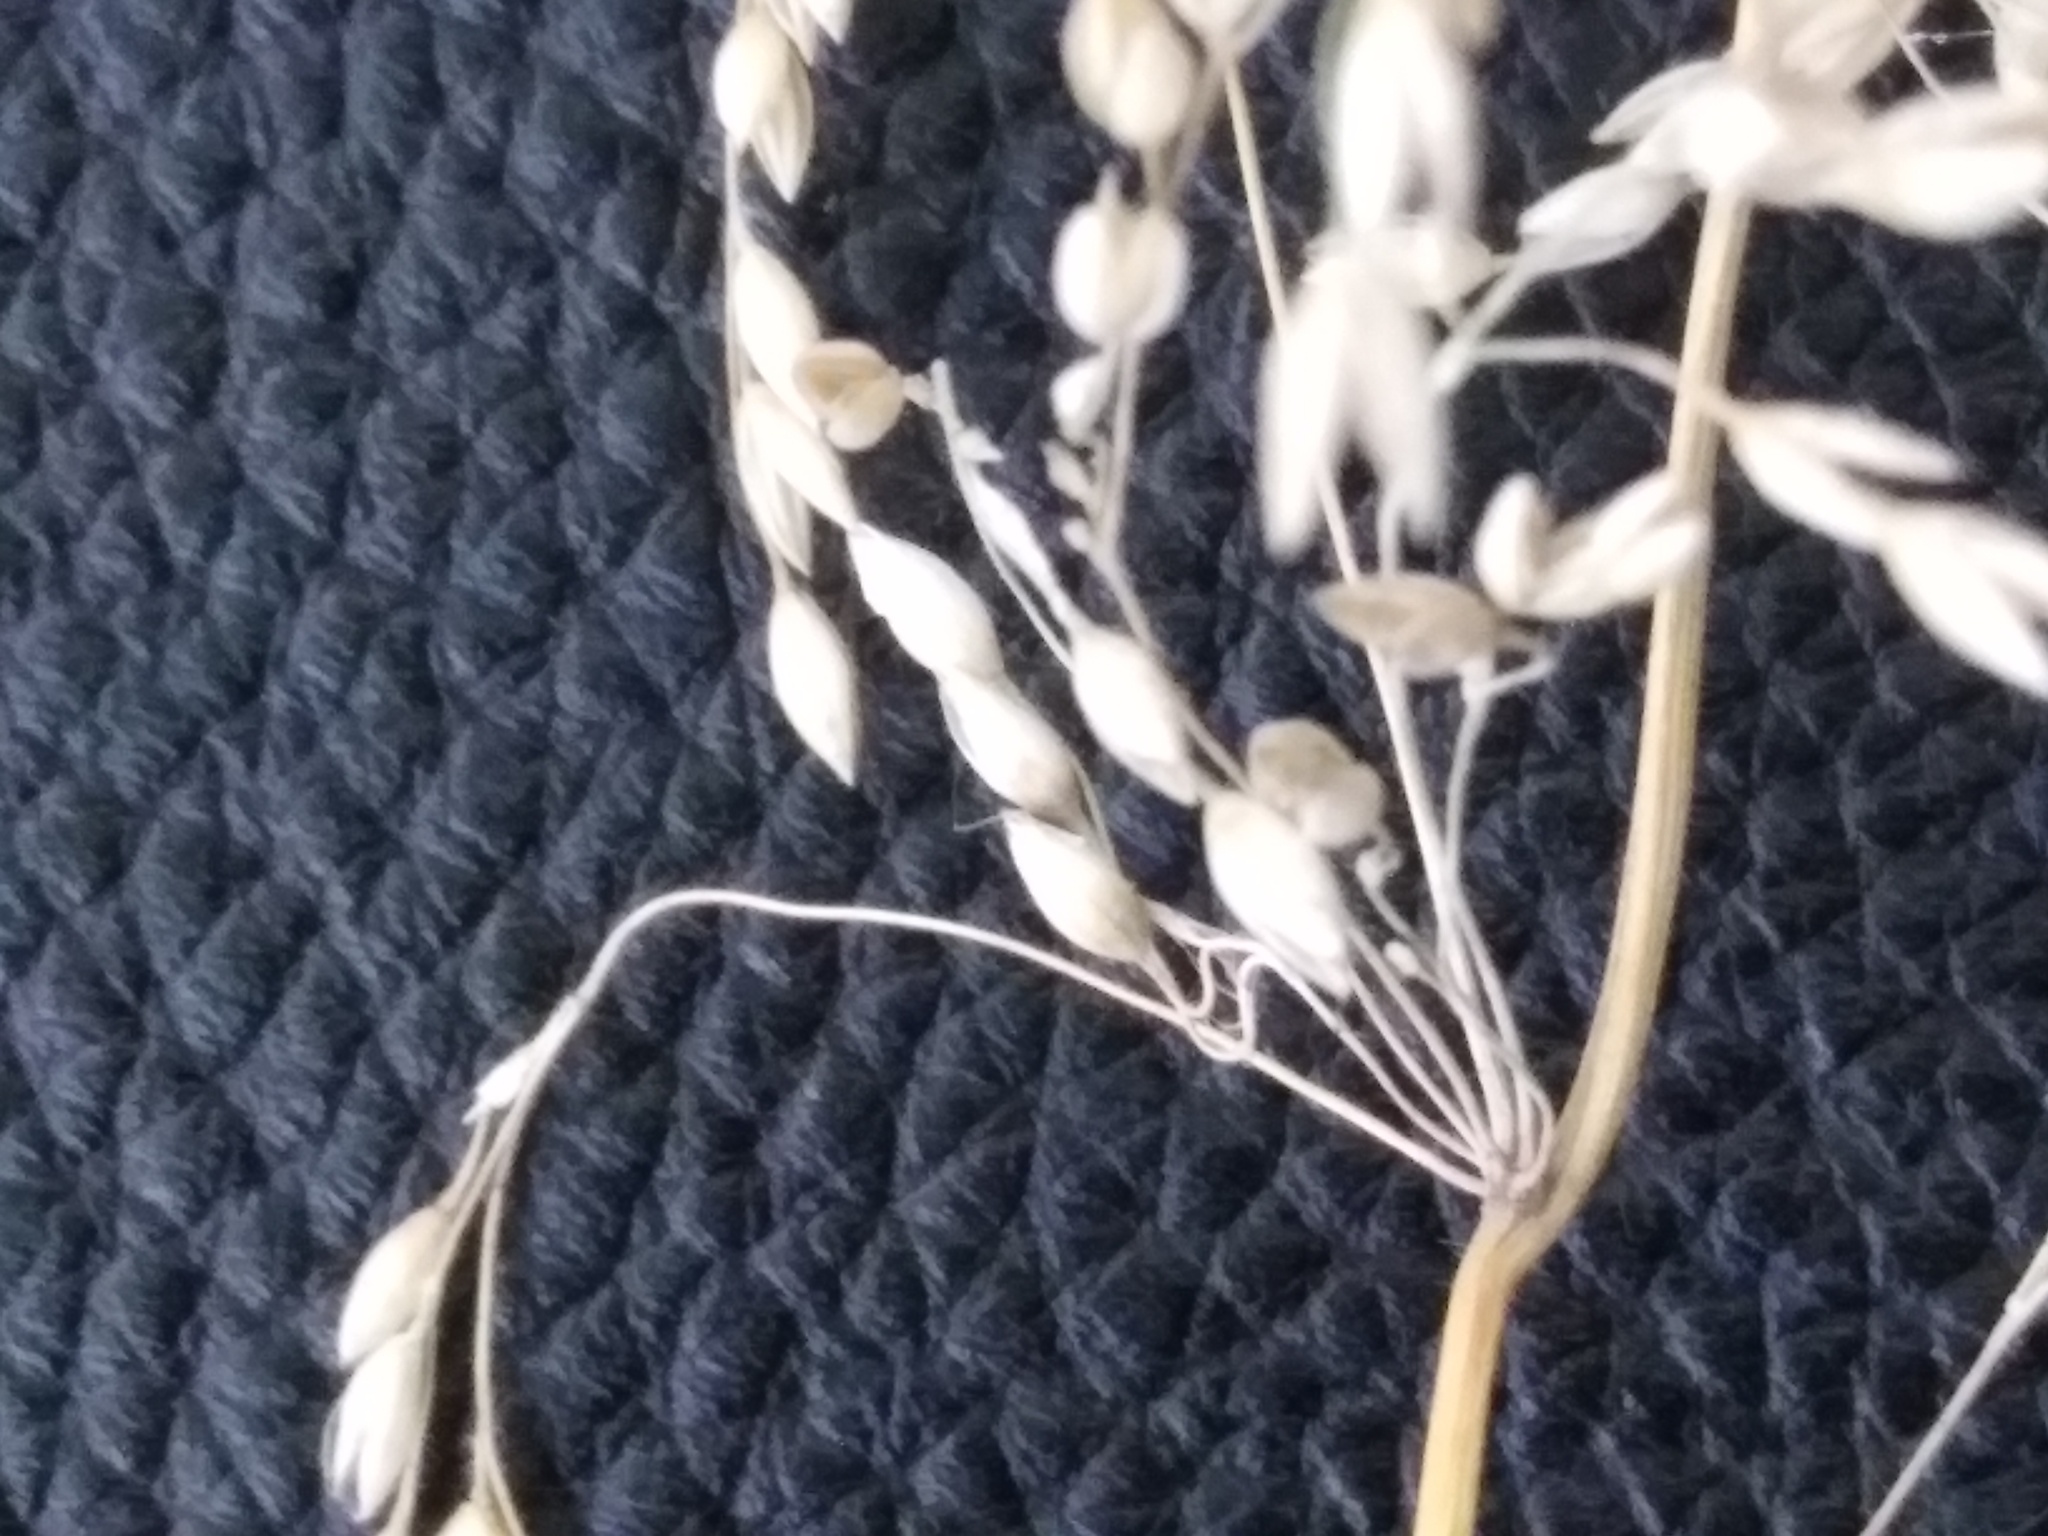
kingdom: Plantae
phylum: Tracheophyta
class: Liliopsida
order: Poales
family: Poaceae
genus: Milium
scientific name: Milium effusum
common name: Wood millet
